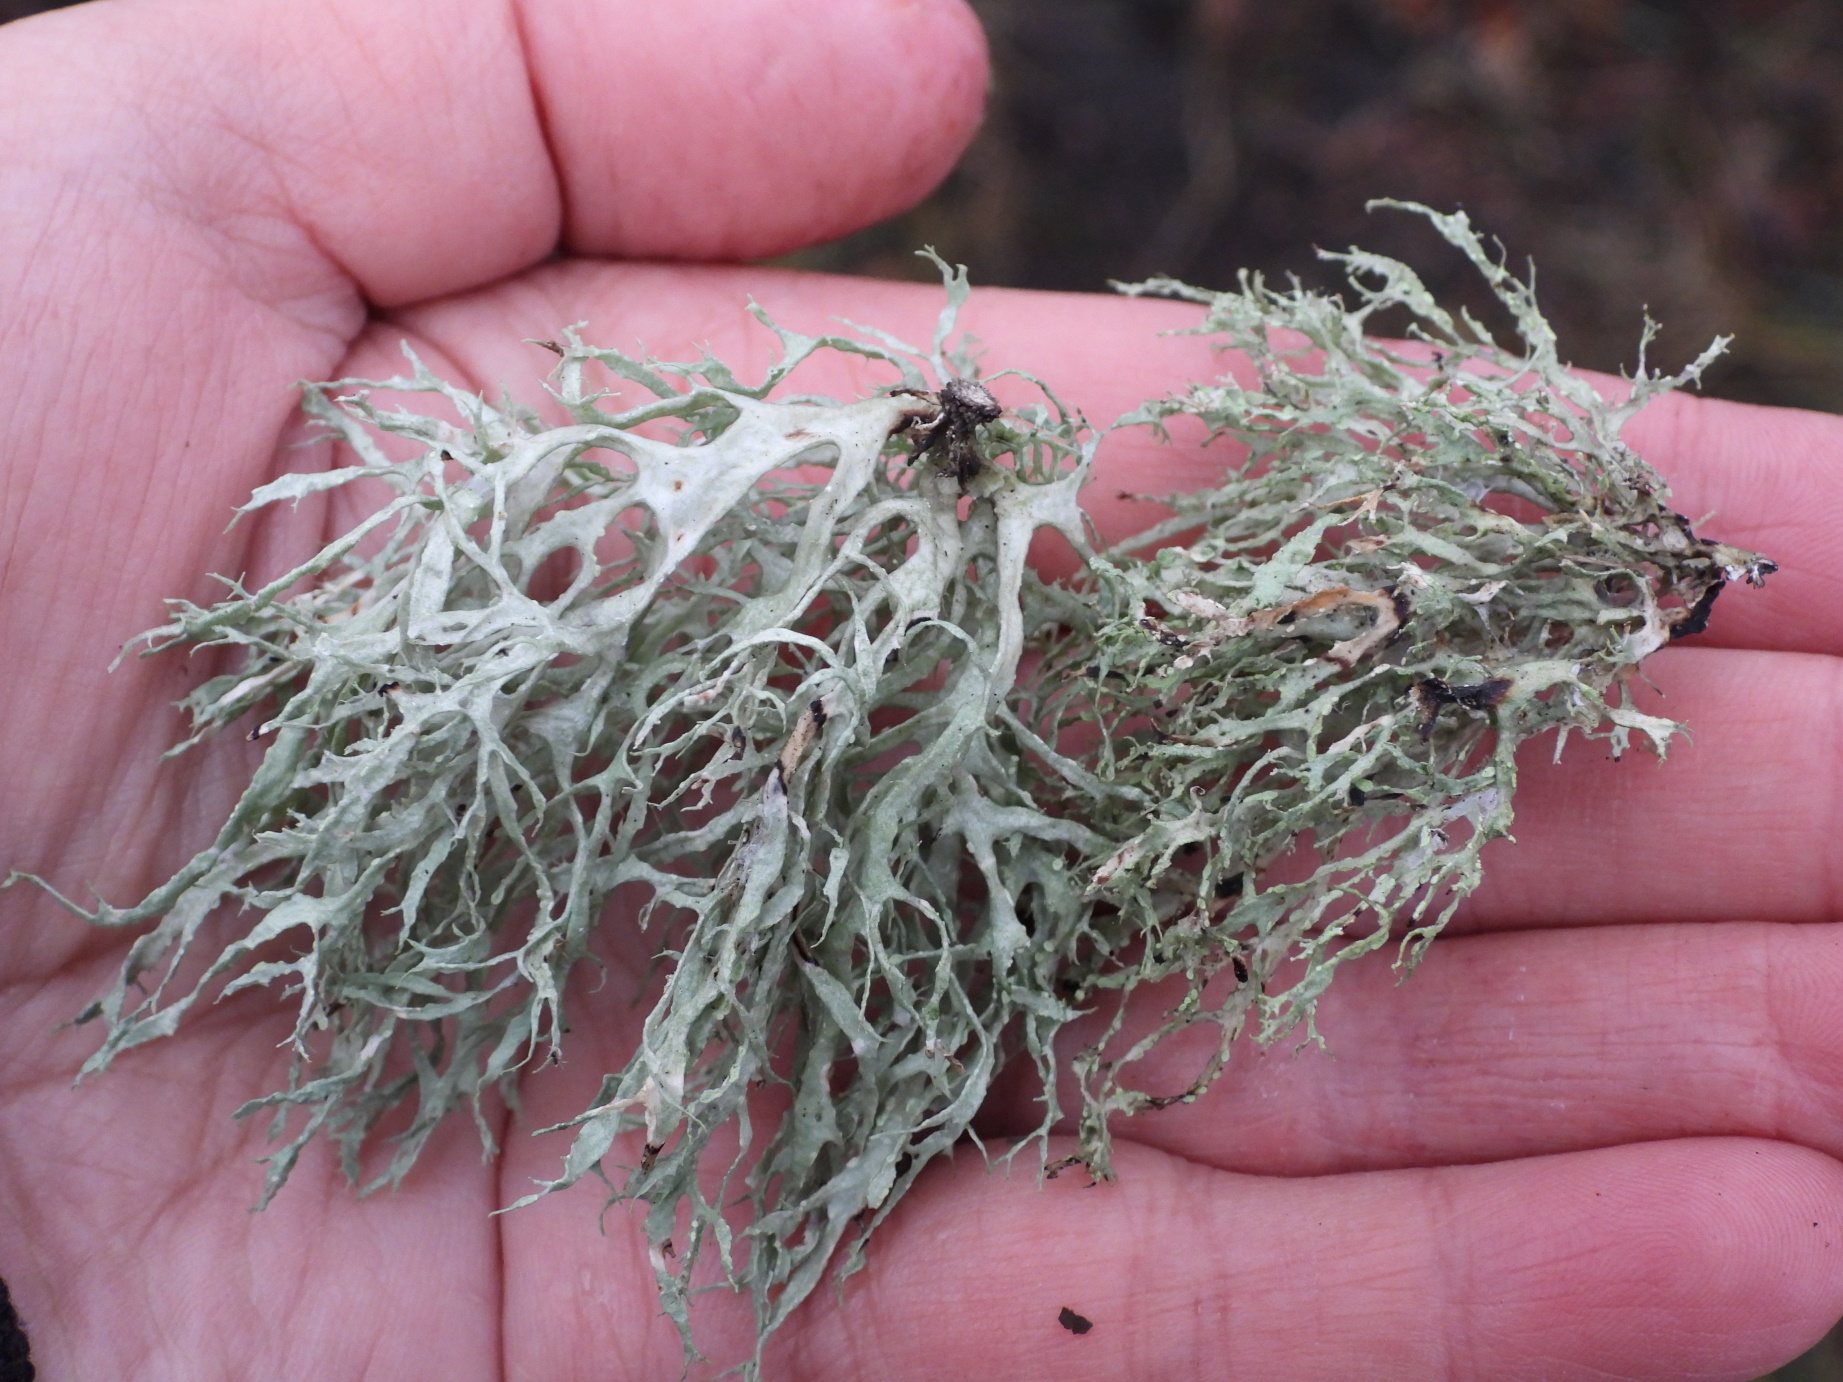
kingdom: Fungi
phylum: Ascomycota
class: Lecanoromycetes
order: Lecanorales
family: Ramalinaceae
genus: Ramalina
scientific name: Ramalina farinacea
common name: Farinose cartilage lichen
